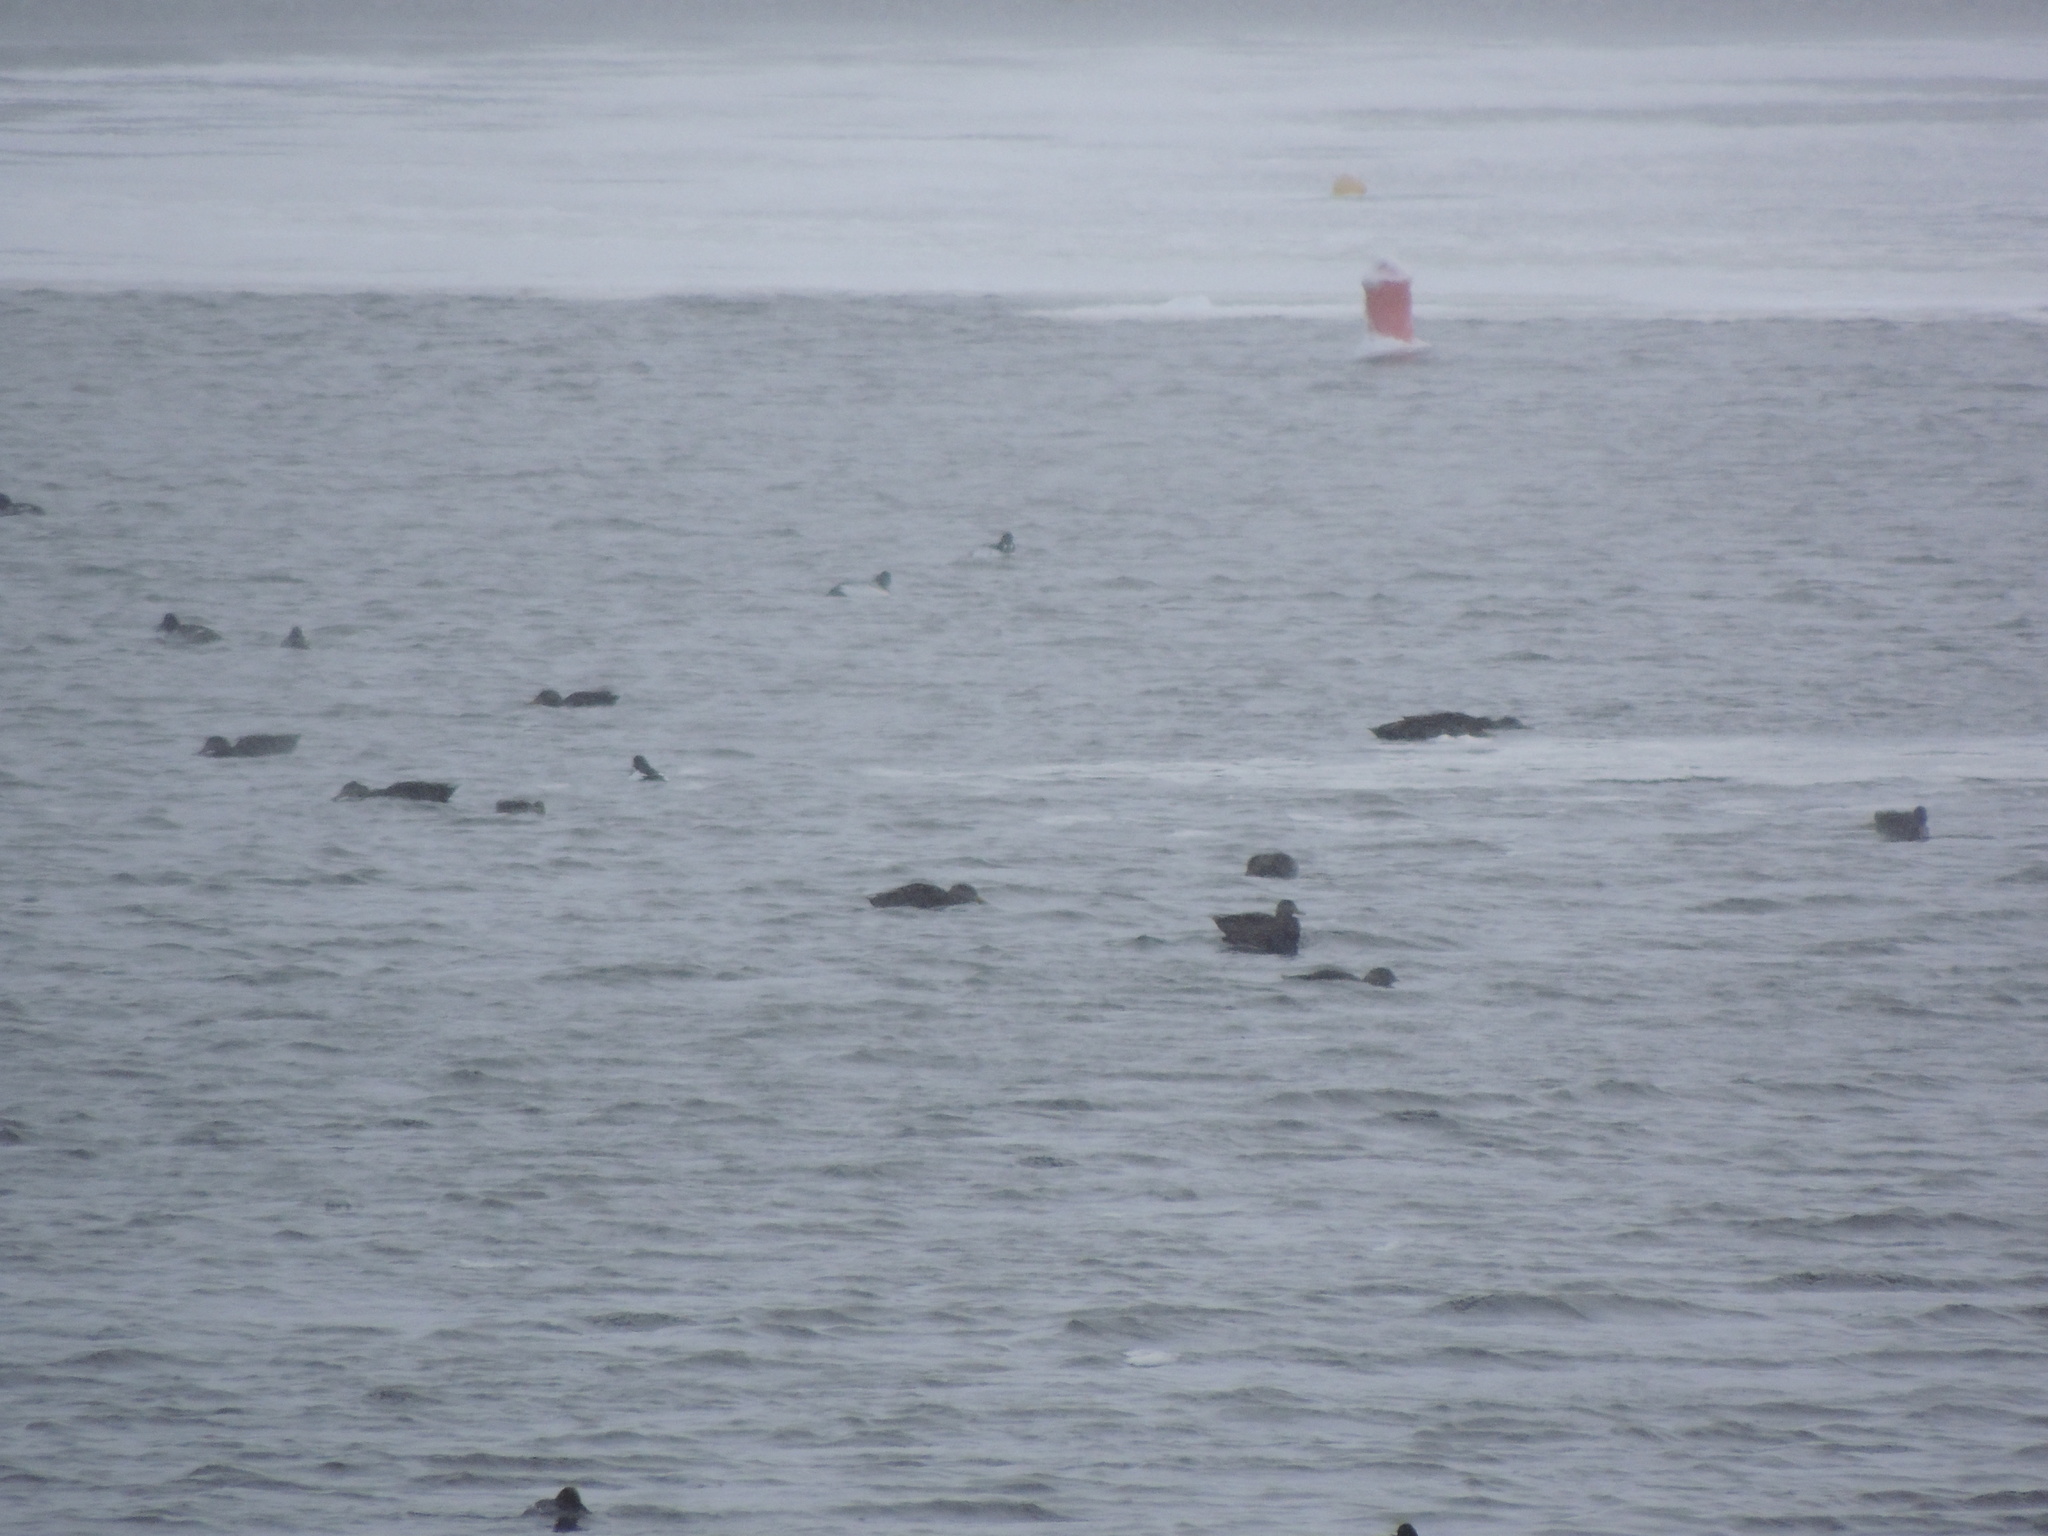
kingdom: Animalia
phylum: Chordata
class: Aves
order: Anseriformes
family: Anatidae
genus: Anas
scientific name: Anas rubripes
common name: American black duck
